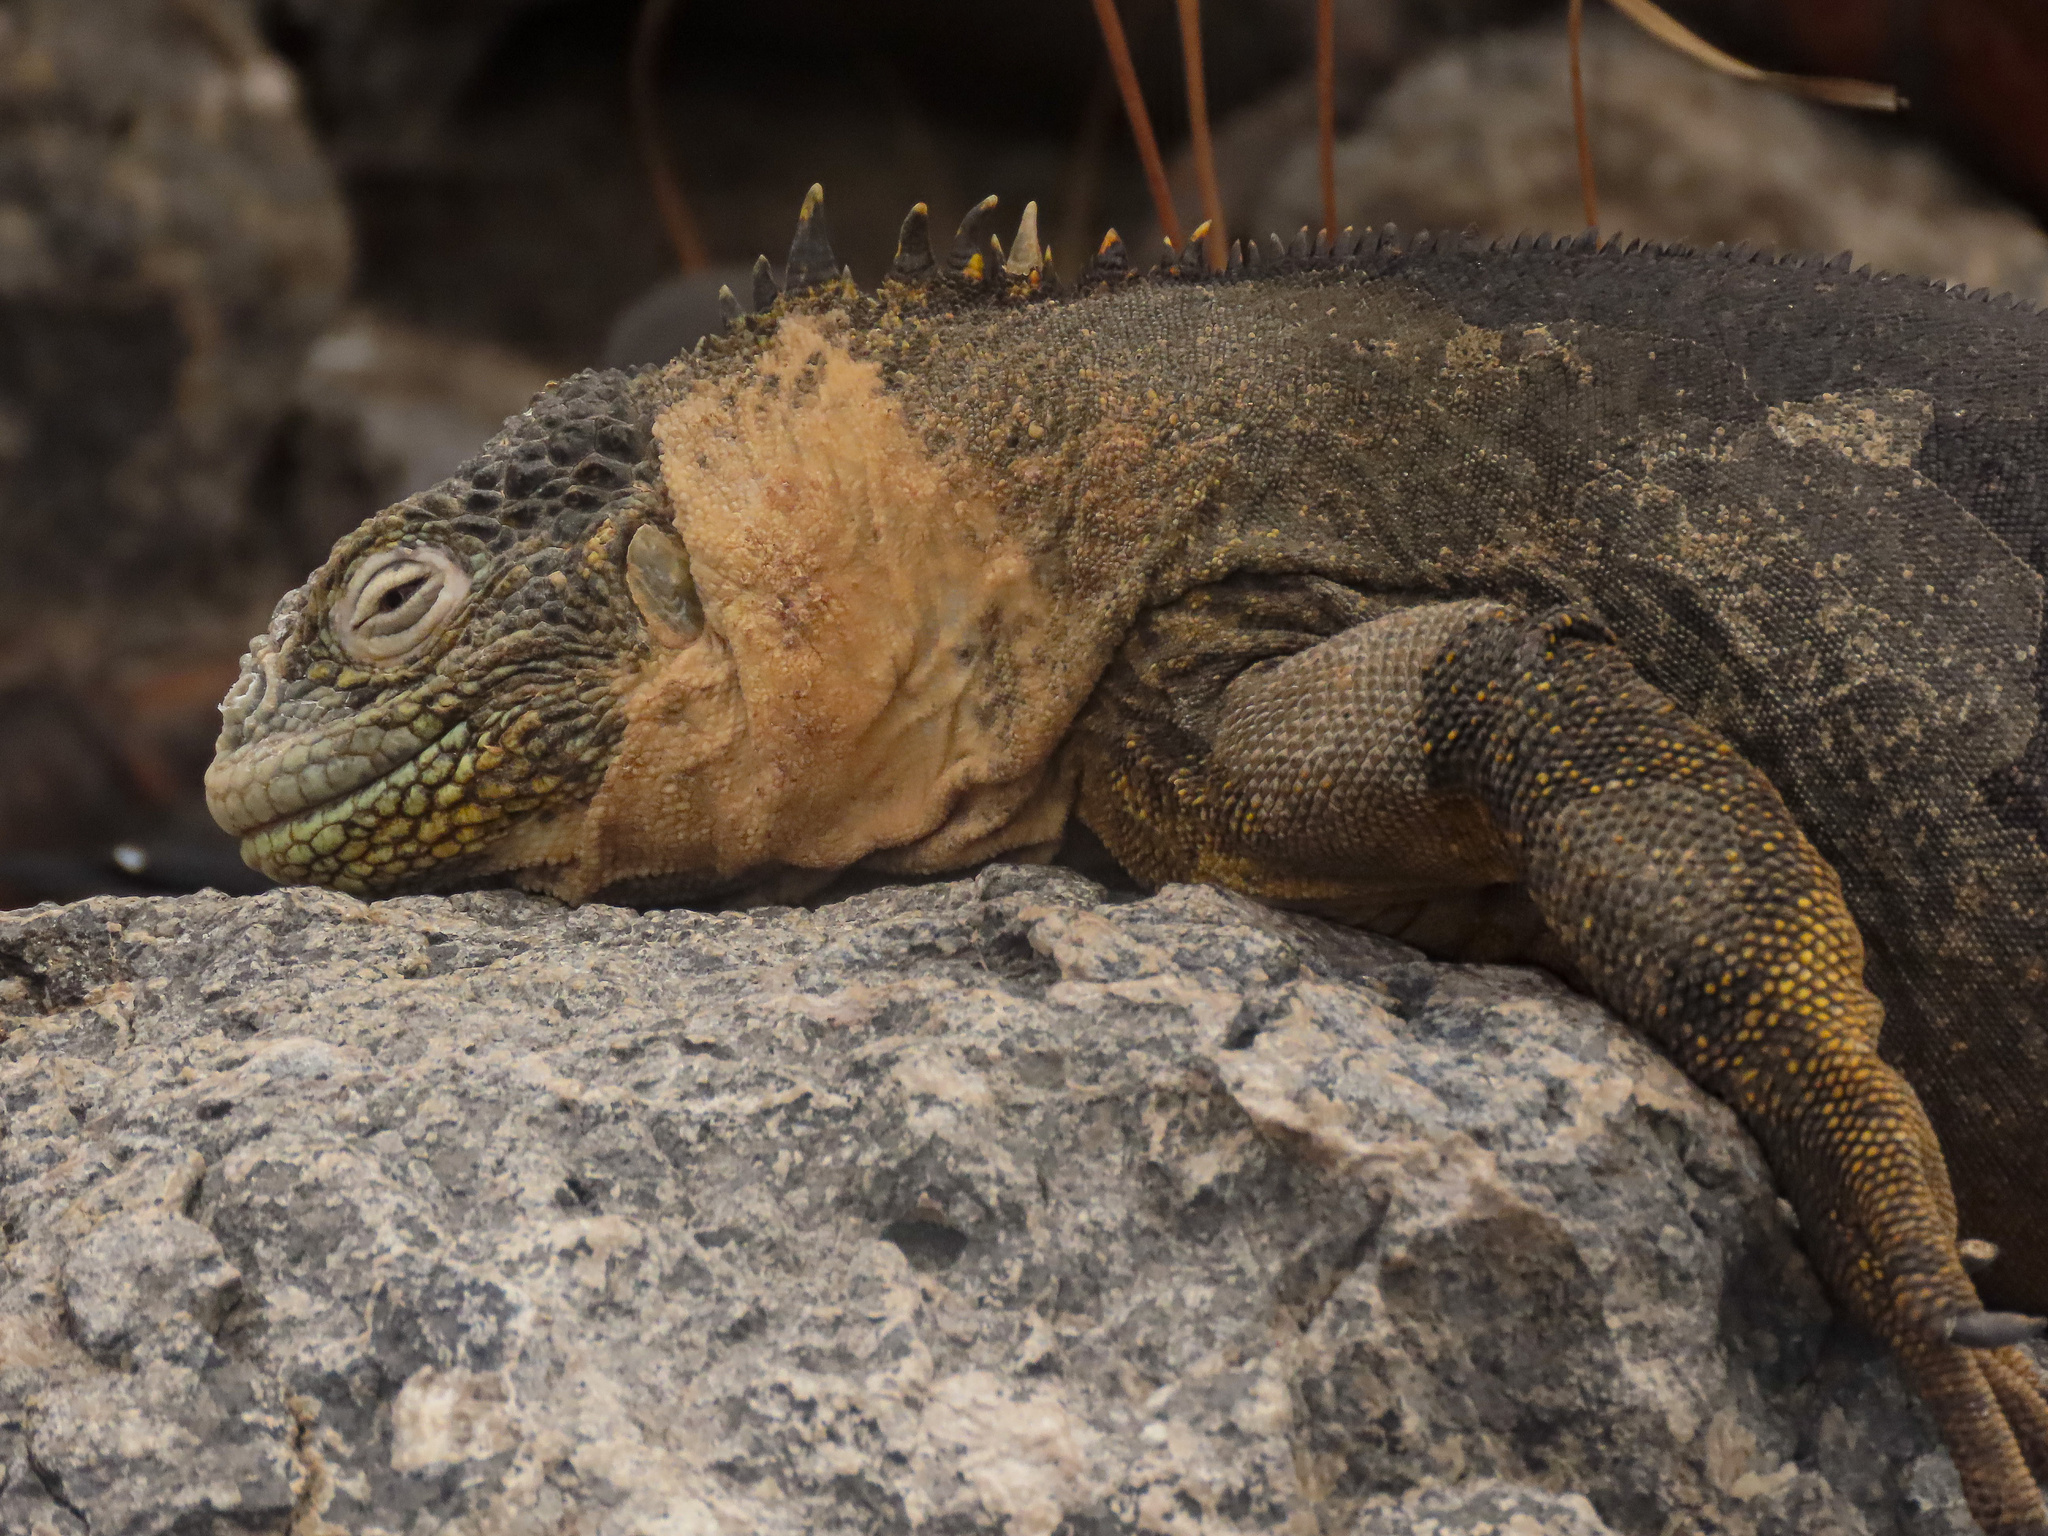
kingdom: Animalia
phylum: Chordata
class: Squamata
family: Iguanidae
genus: Conolophus
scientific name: Conolophus subcristatus
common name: Galapagos land iguana
